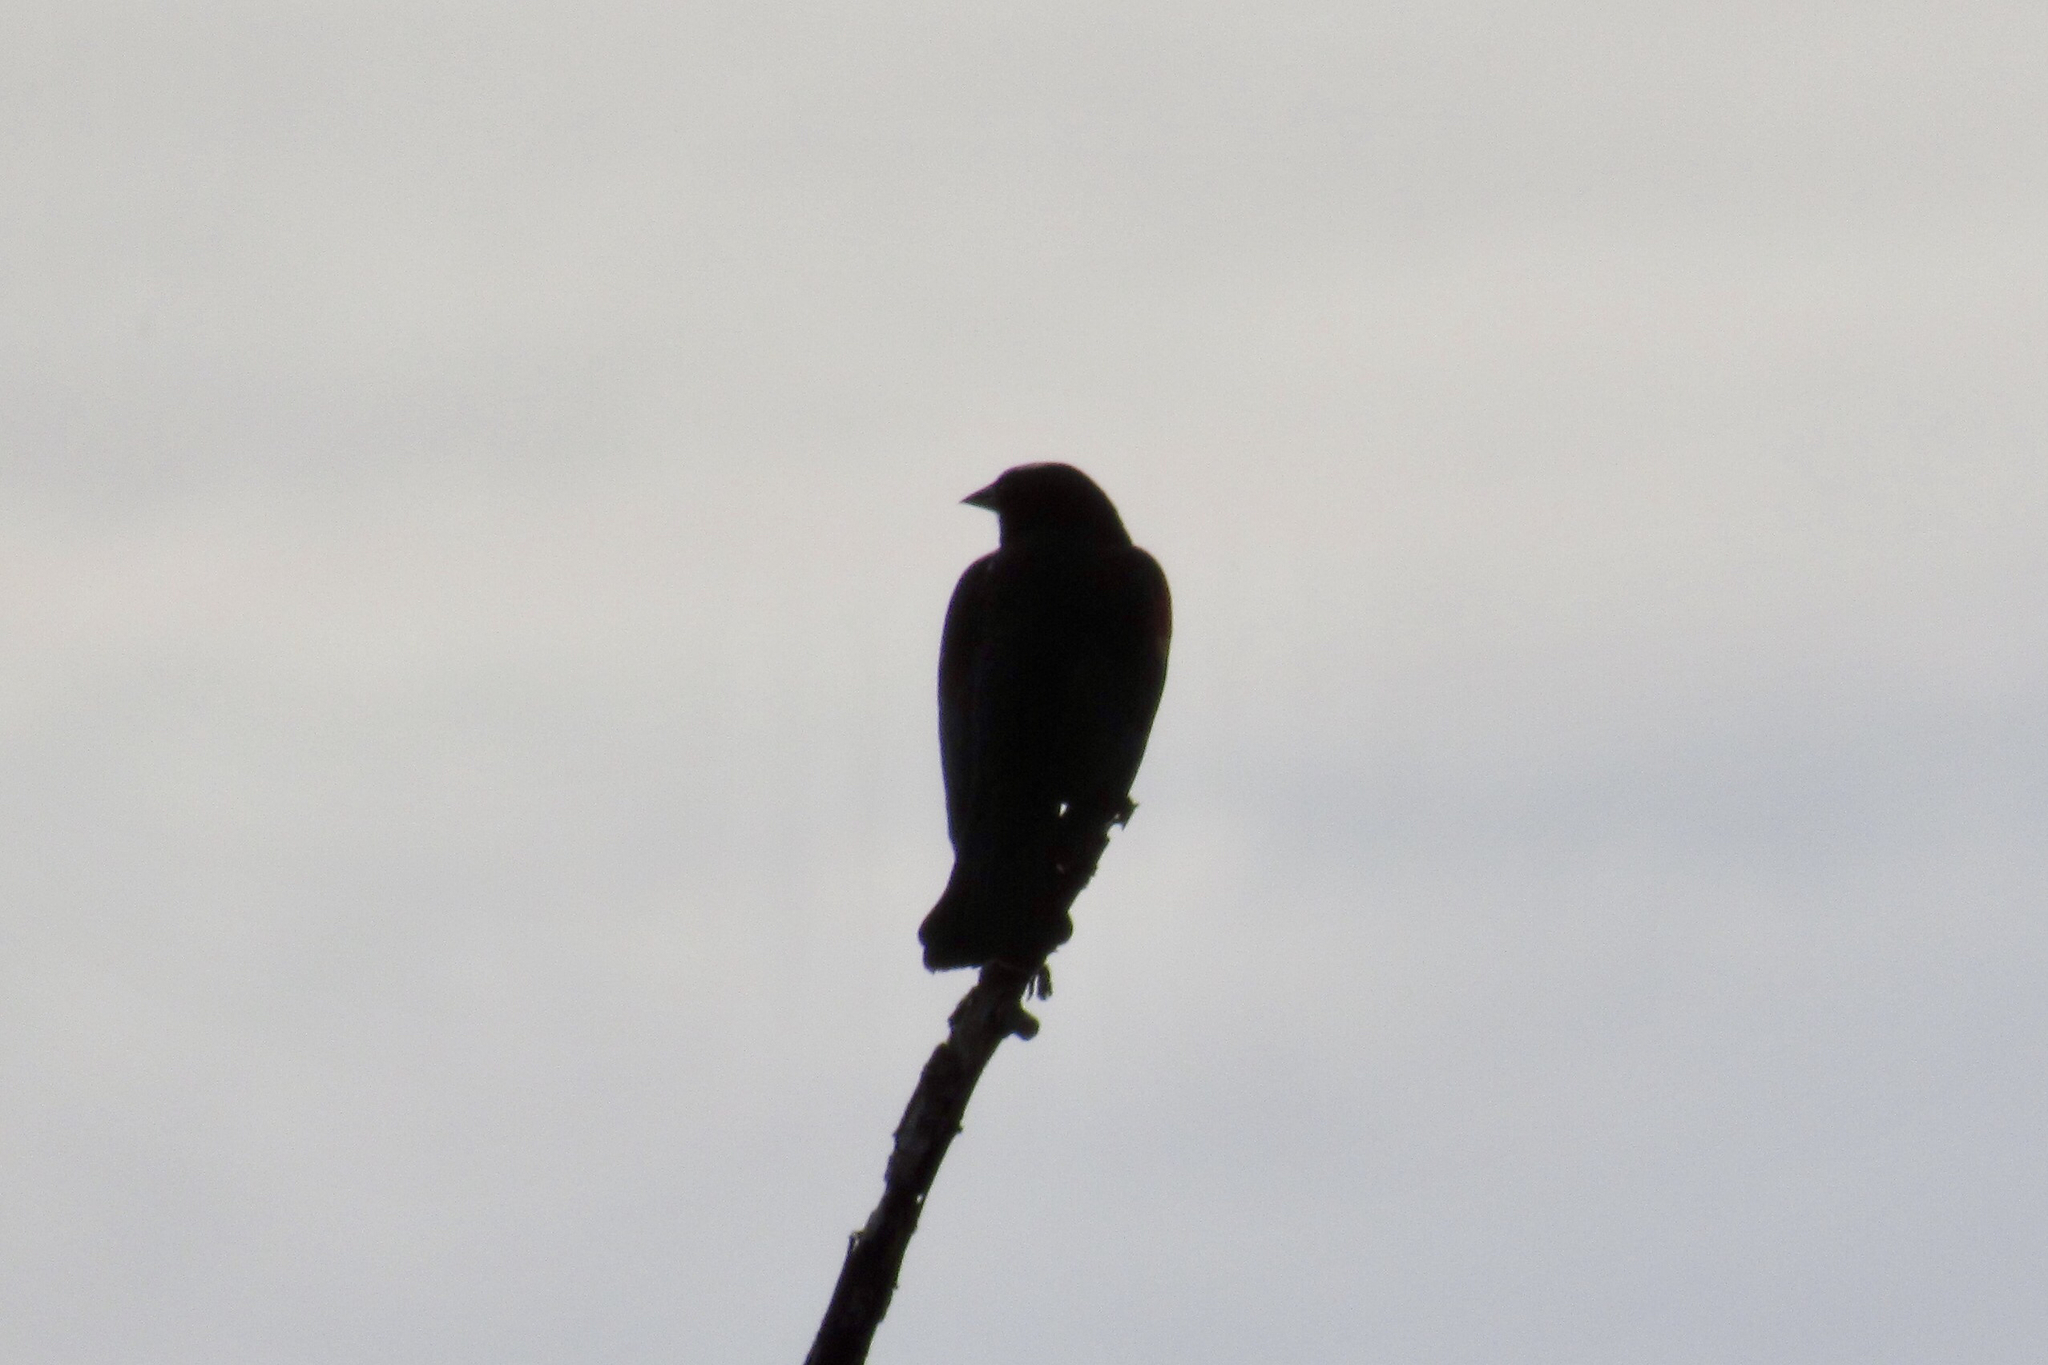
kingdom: Animalia
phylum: Chordata
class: Aves
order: Passeriformes
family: Icteridae
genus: Agelaius
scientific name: Agelaius phoeniceus
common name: Red-winged blackbird
